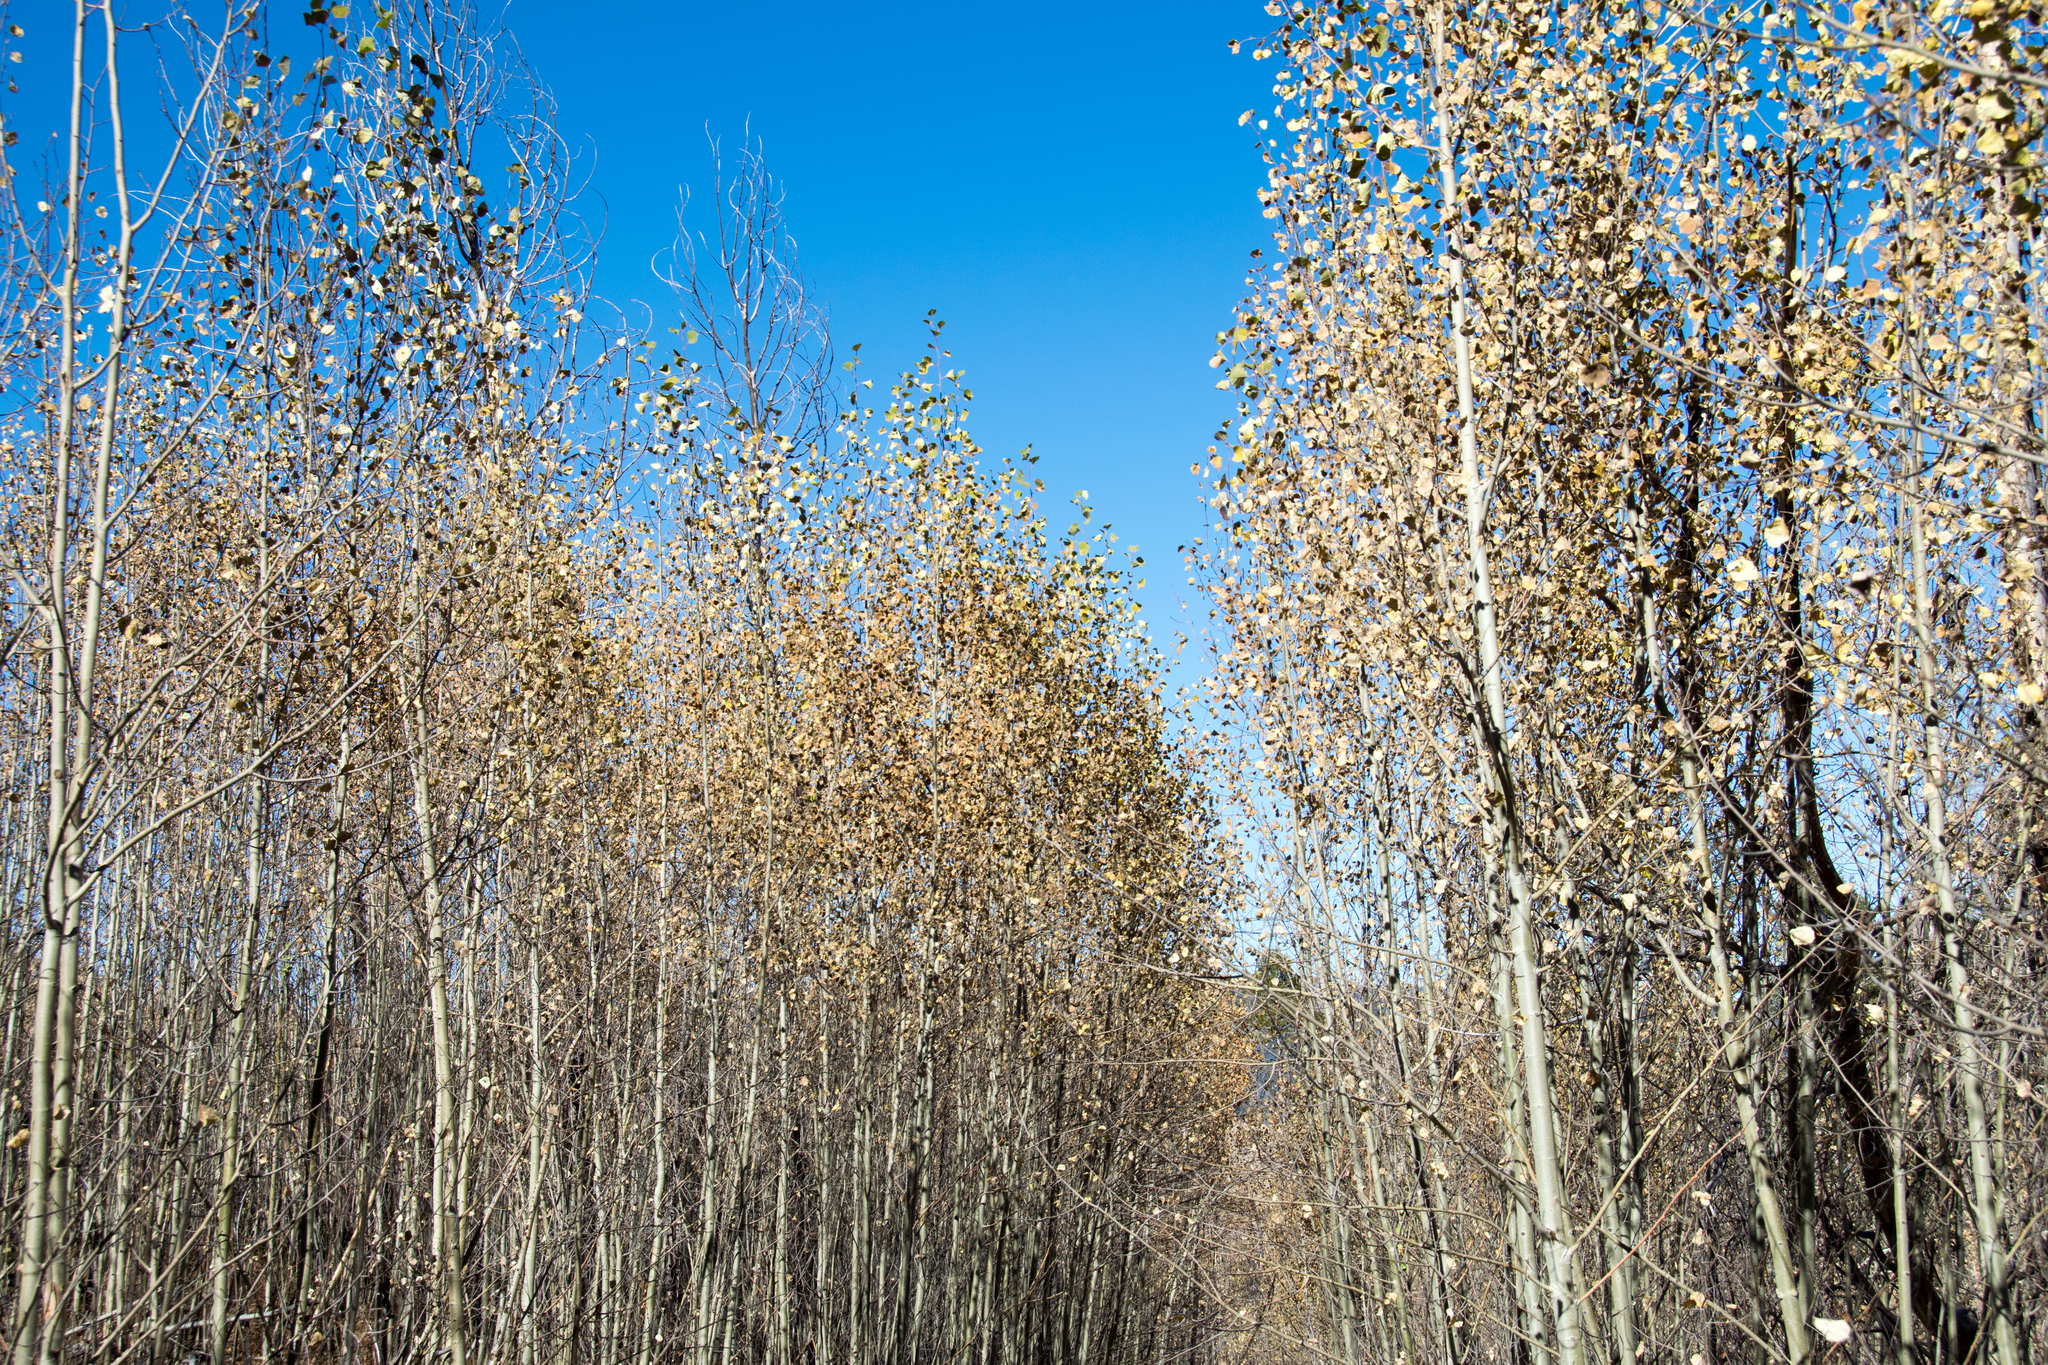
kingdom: Plantae
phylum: Tracheophyta
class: Magnoliopsida
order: Malpighiales
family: Salicaceae
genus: Populus
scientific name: Populus tremuloides
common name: Quaking aspen
